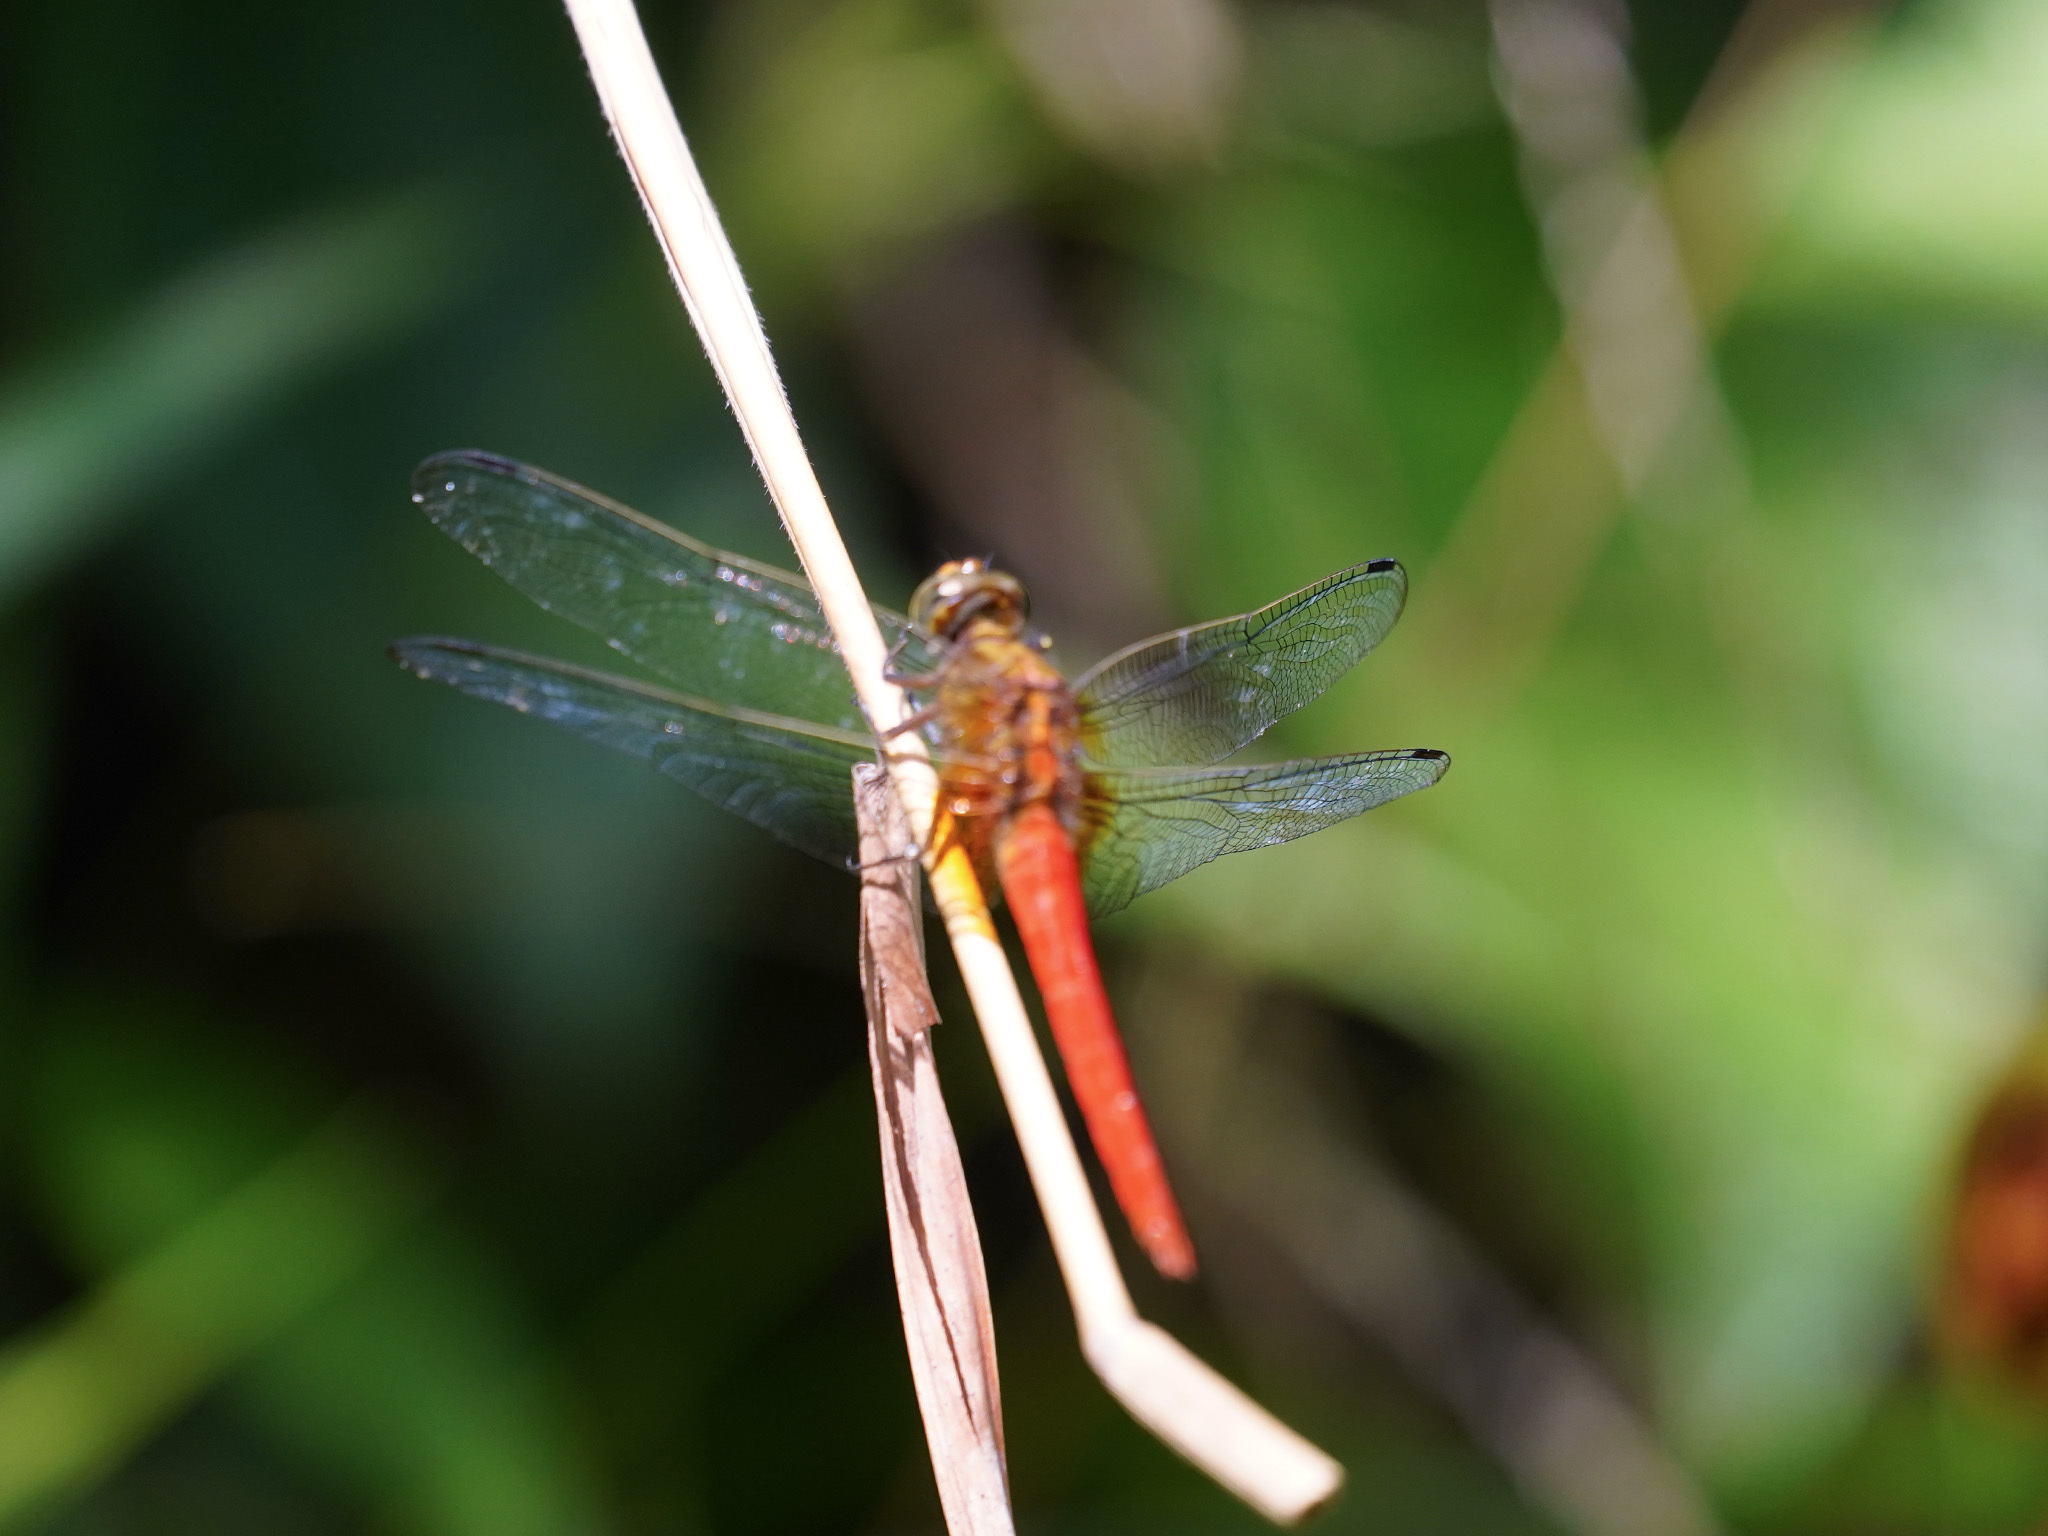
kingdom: Animalia
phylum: Arthropoda
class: Insecta
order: Odonata
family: Libellulidae
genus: Orthetrum
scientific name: Orthetrum testaceum
